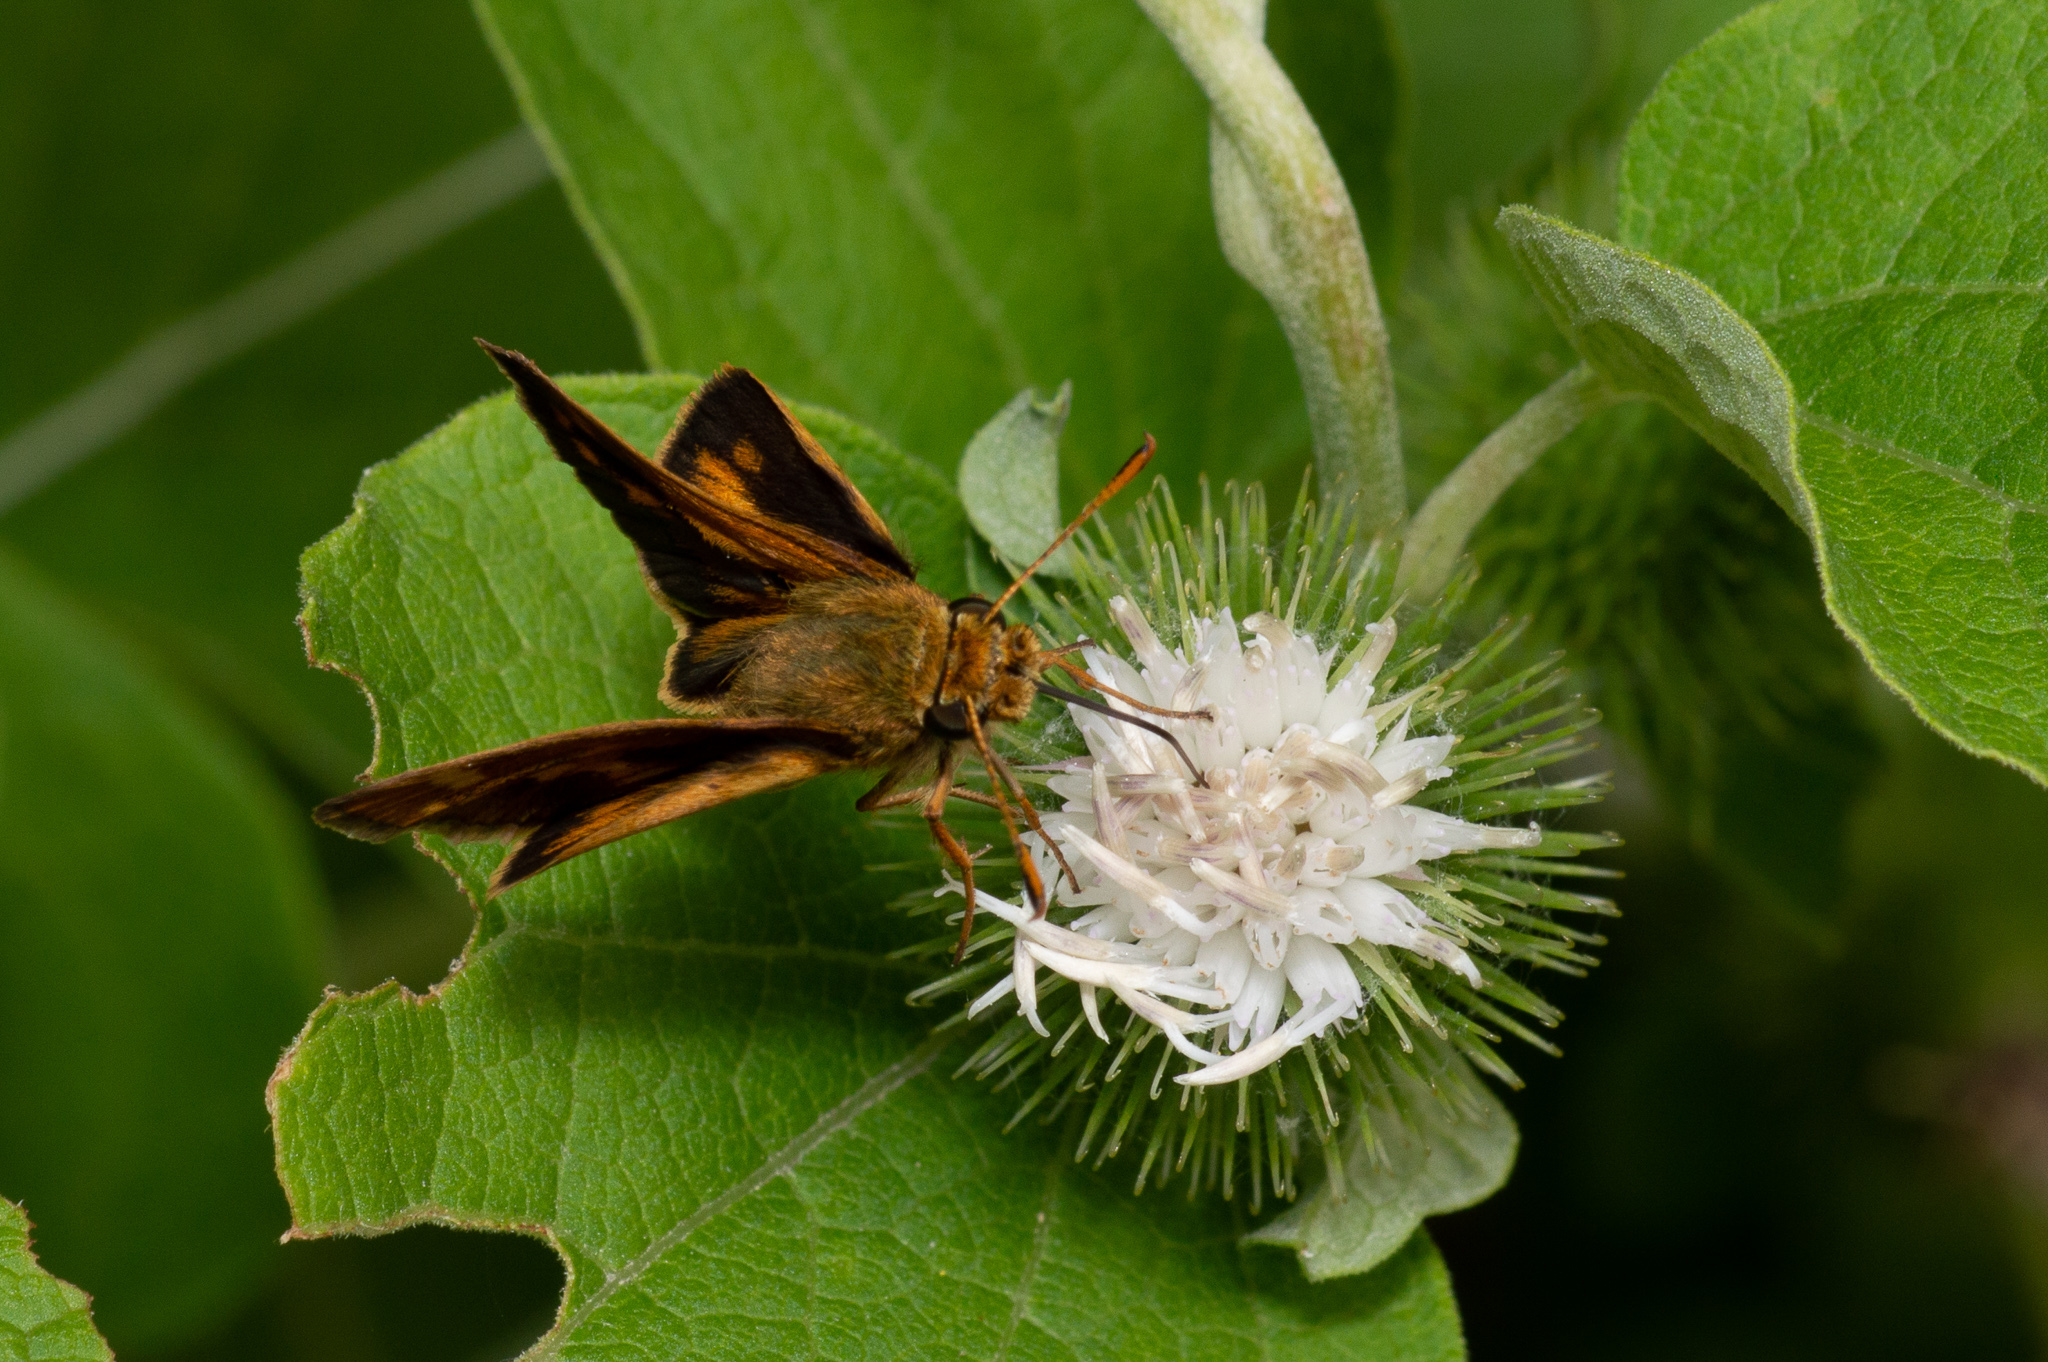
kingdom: Animalia
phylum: Arthropoda
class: Insecta
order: Lepidoptera
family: Hesperiidae
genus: Polites
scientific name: Polites coras
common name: Peck's skipper
